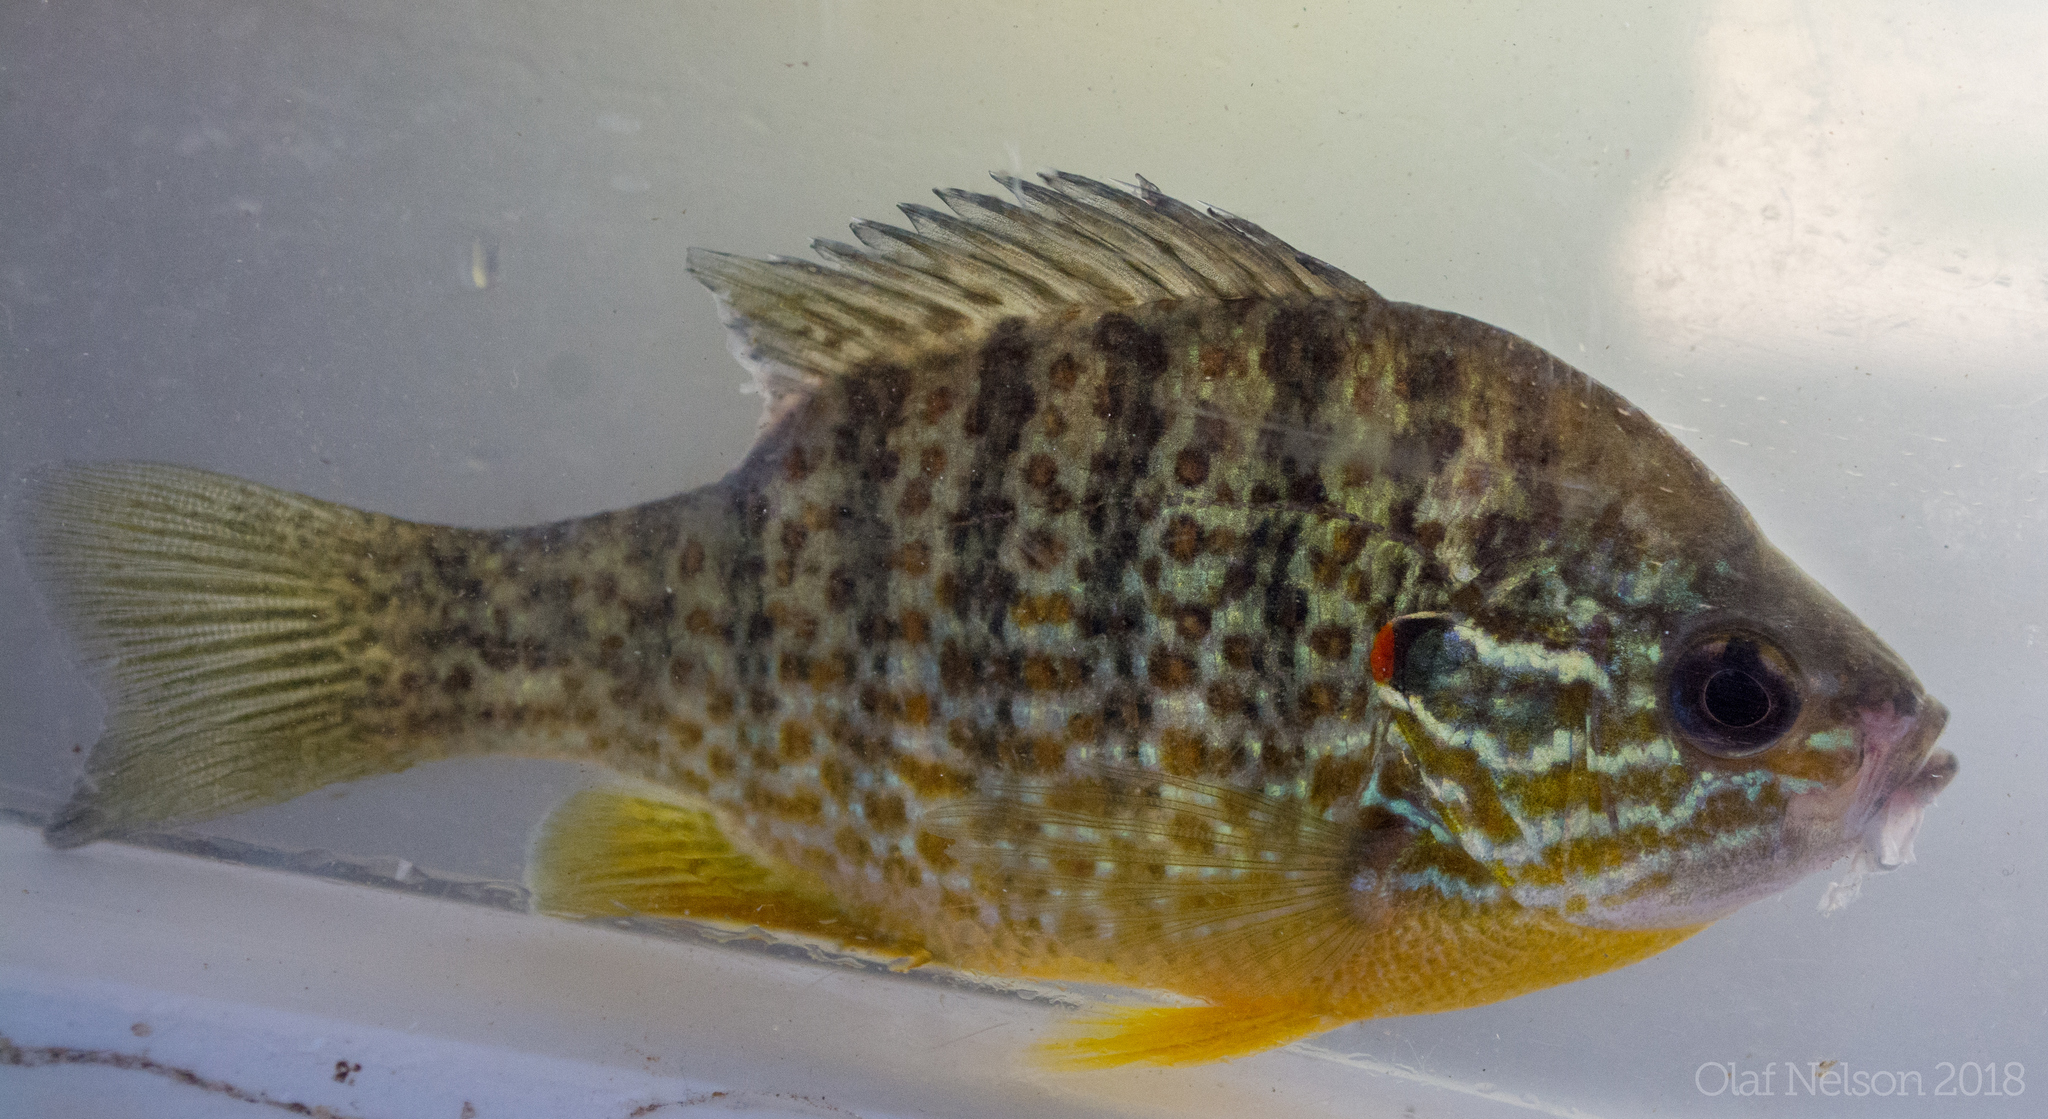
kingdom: Animalia
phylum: Chordata
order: Perciformes
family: Centrarchidae
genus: Lepomis
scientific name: Lepomis gibbosus
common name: Pumpkinseed
